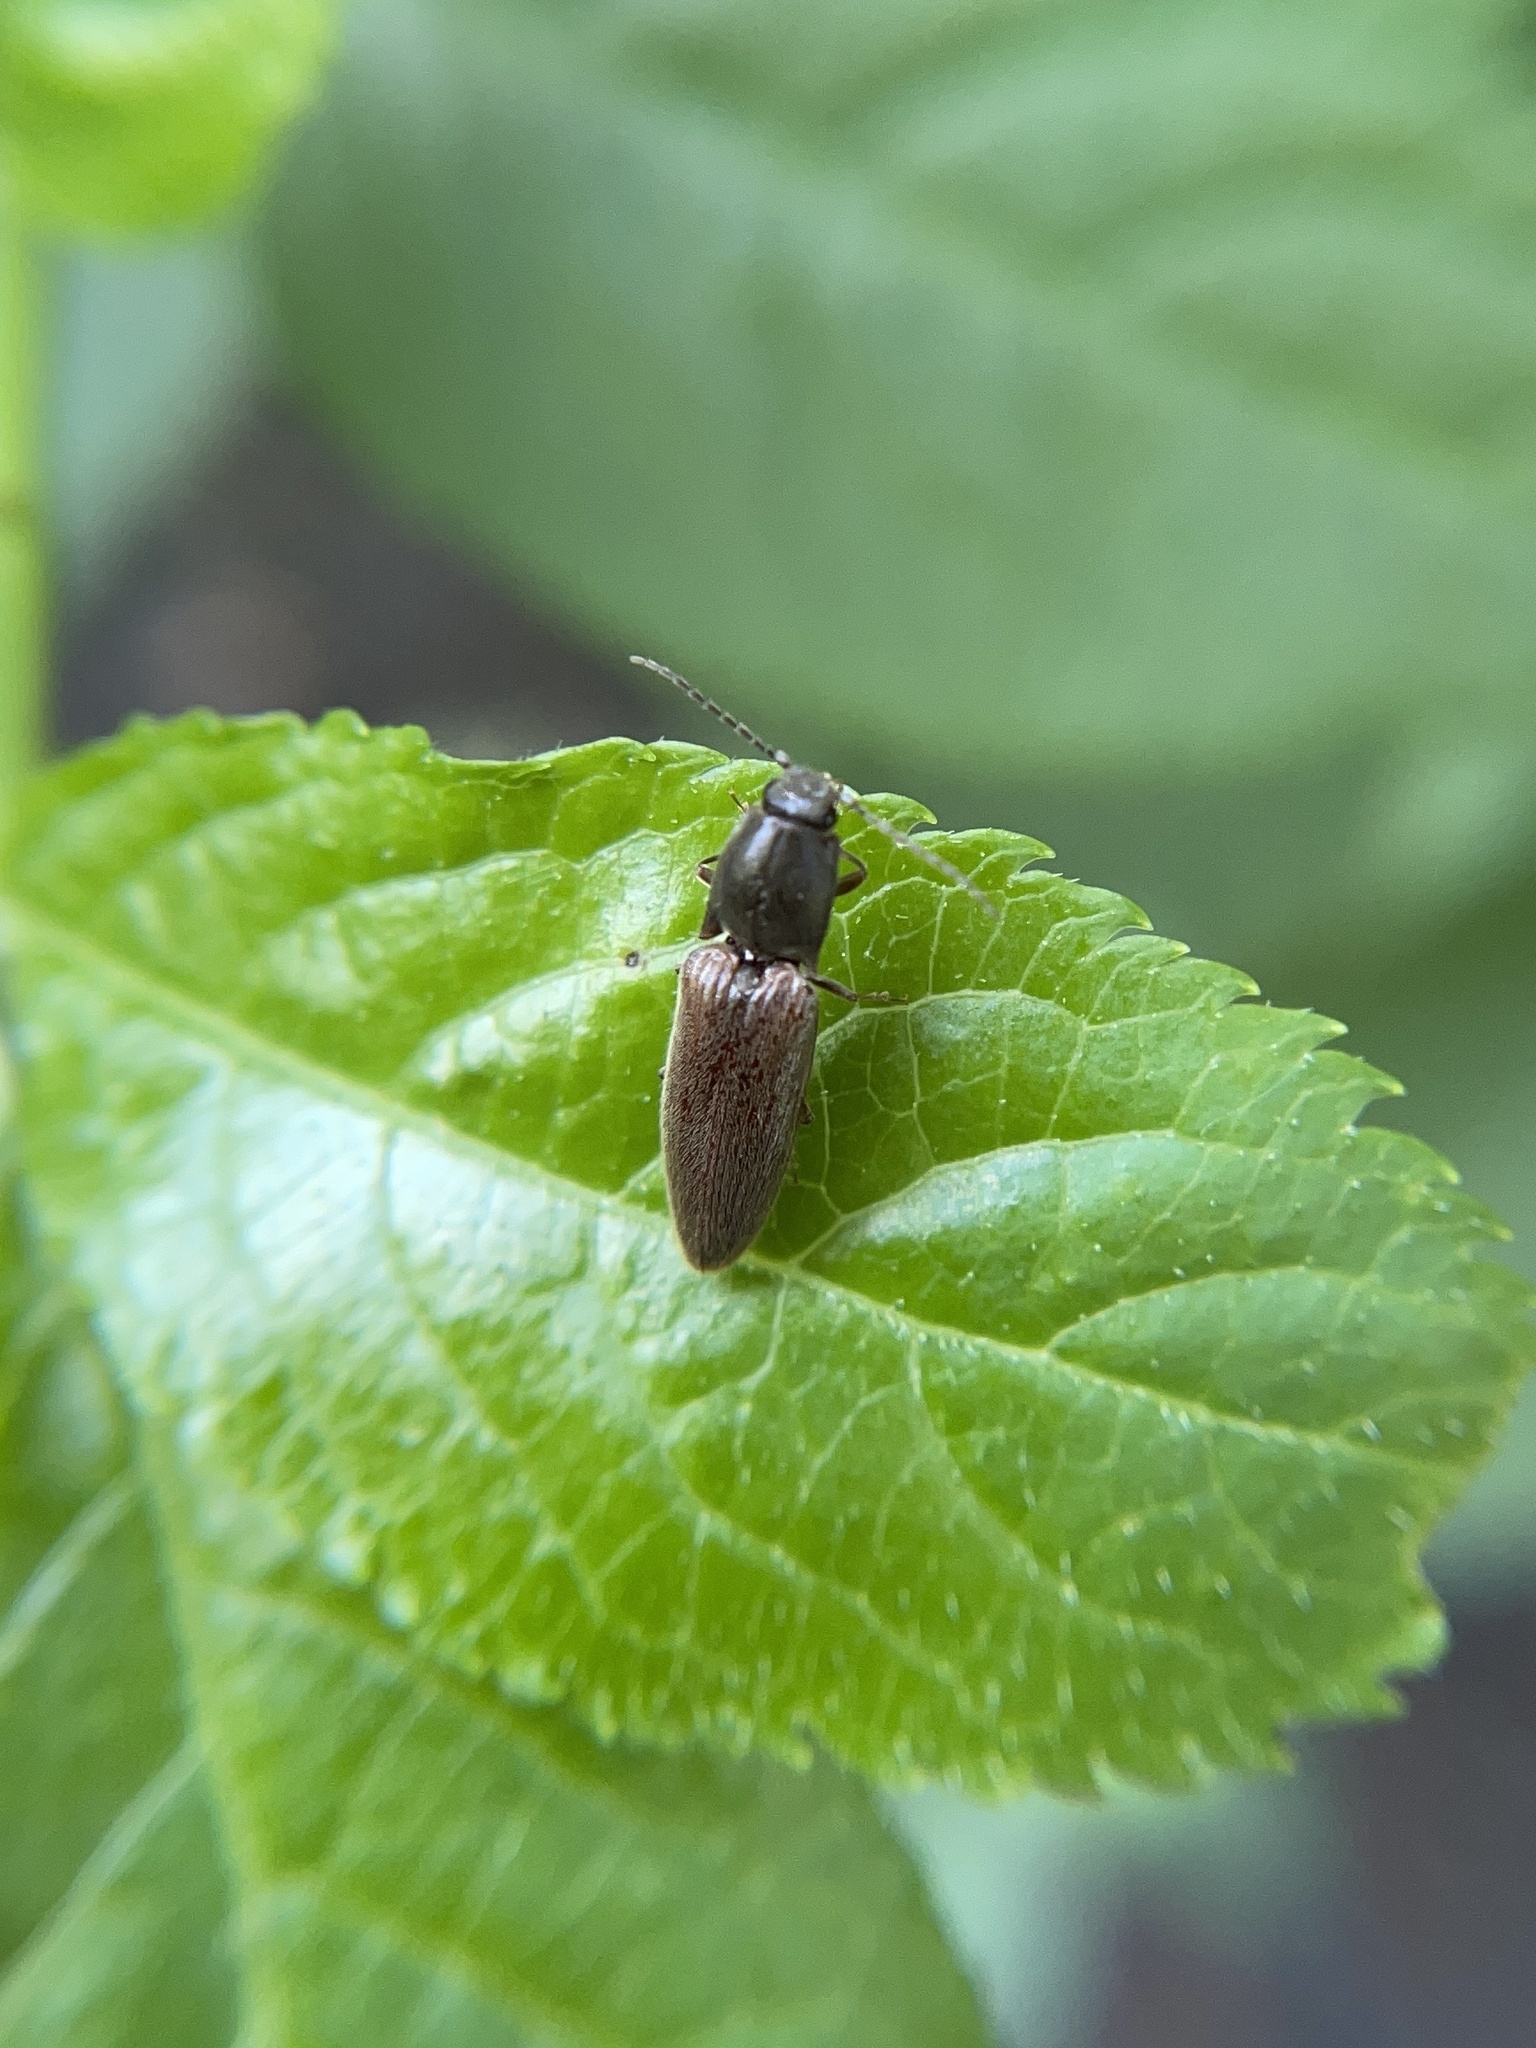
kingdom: Animalia
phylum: Arthropoda
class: Insecta
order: Coleoptera
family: Elateridae
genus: Athous
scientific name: Athous haemorrhoidalis
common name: Red-brown click beetle
